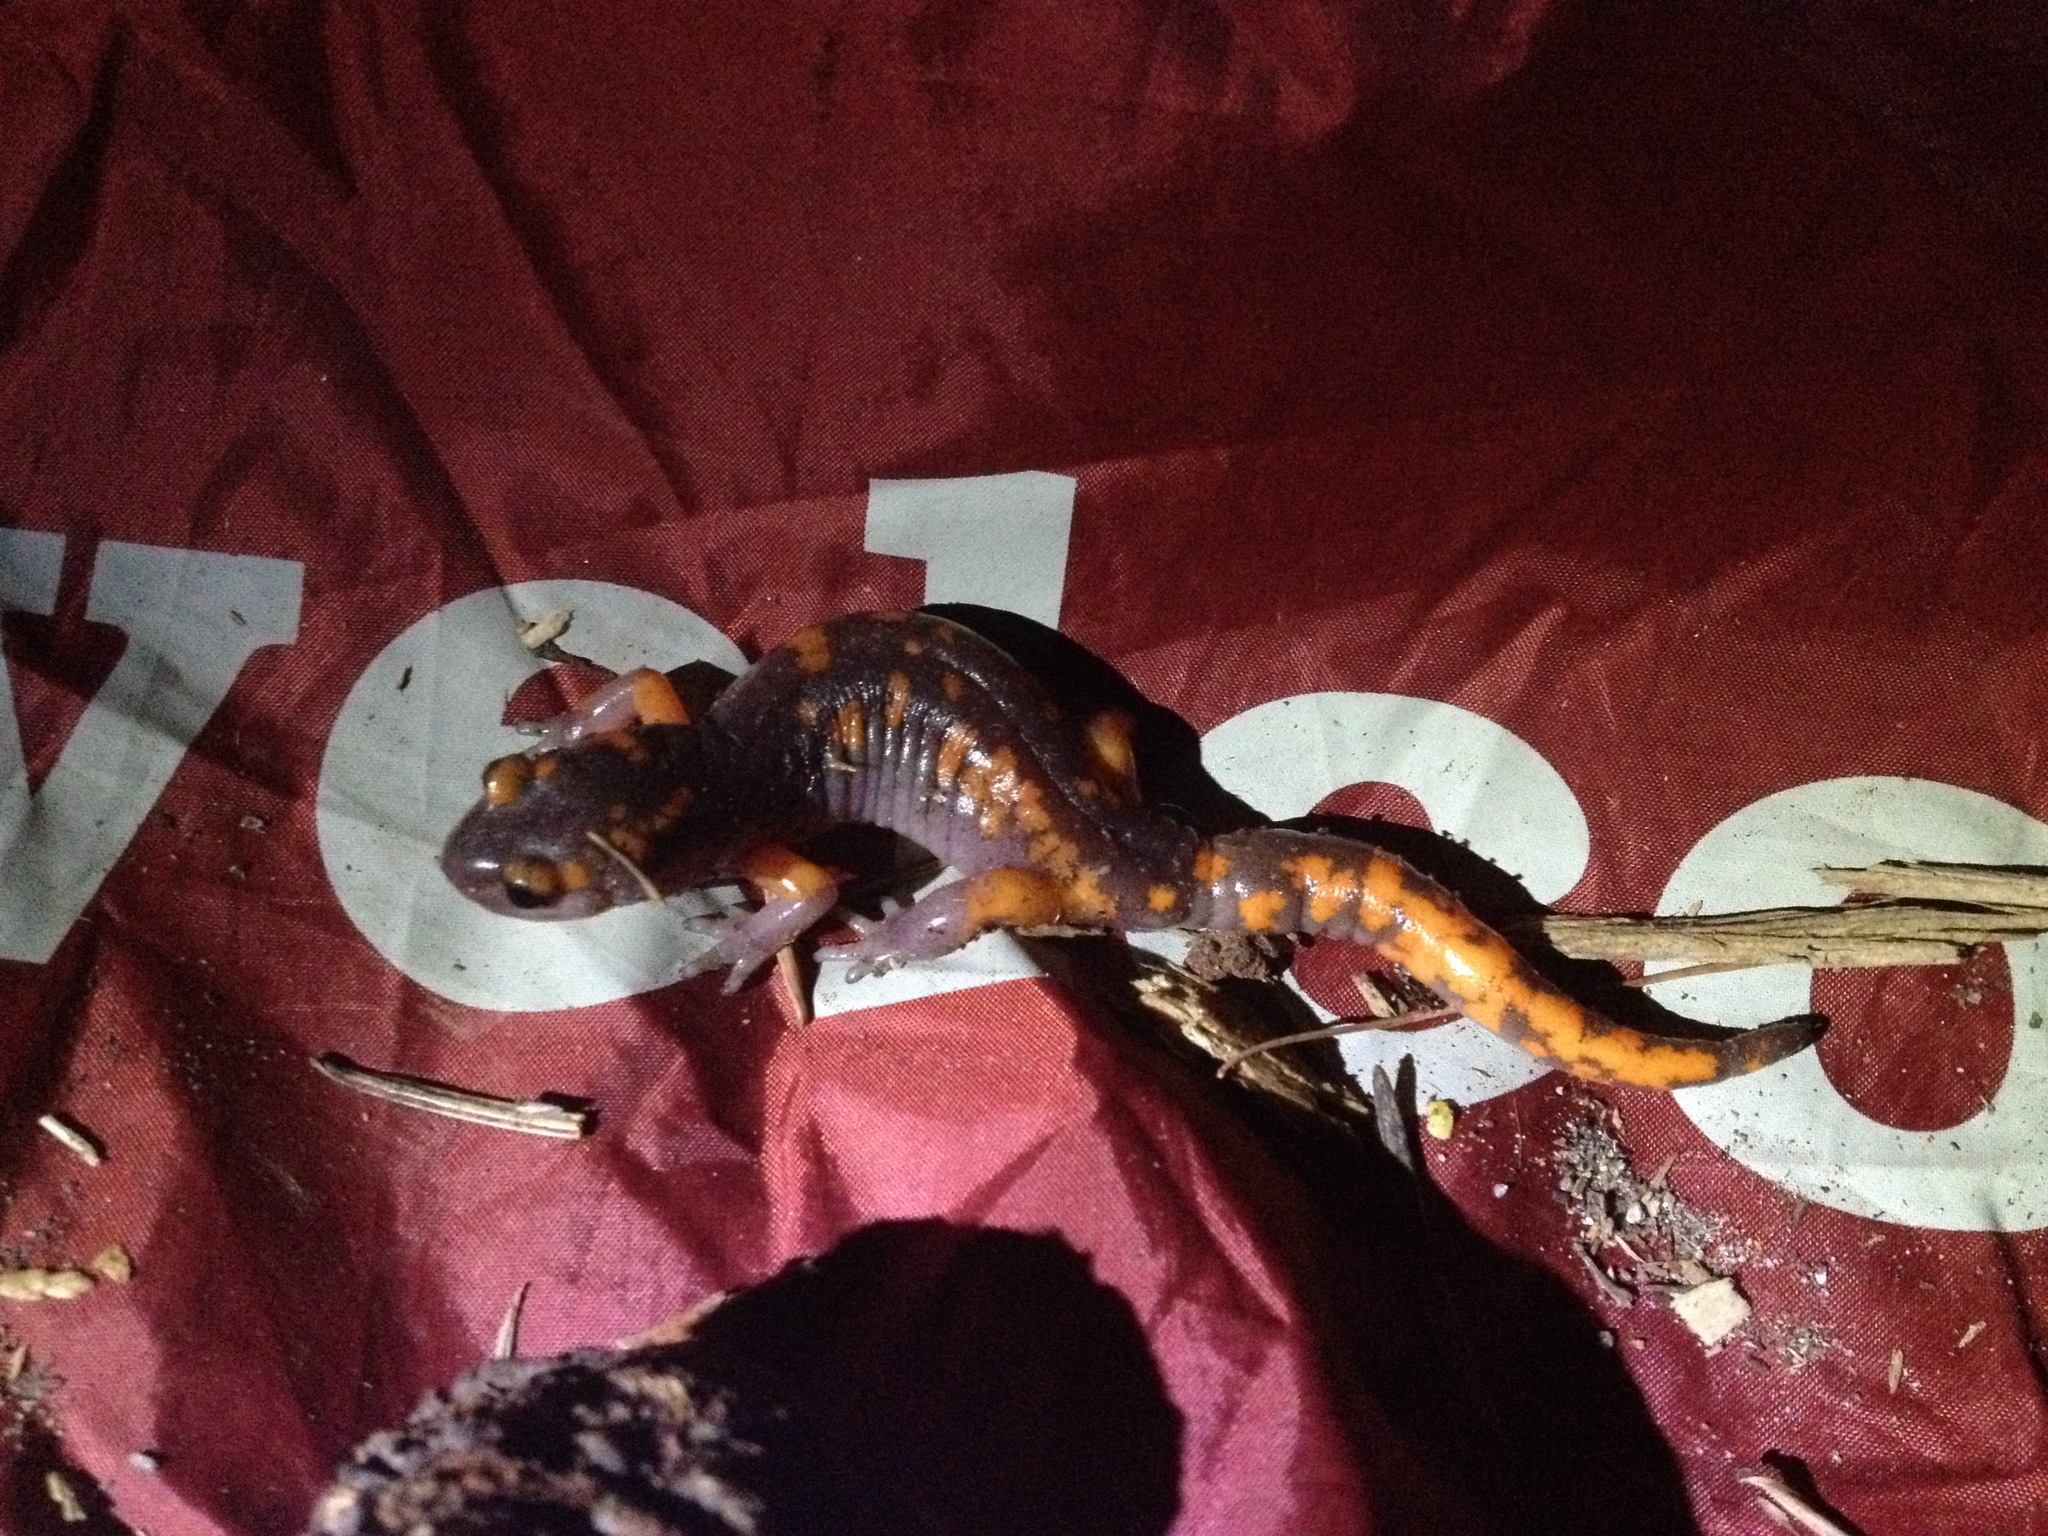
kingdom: Animalia
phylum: Chordata
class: Amphibia
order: Caudata
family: Plethodontidae
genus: Ensatina
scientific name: Ensatina eschscholtzii
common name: Ensatina
